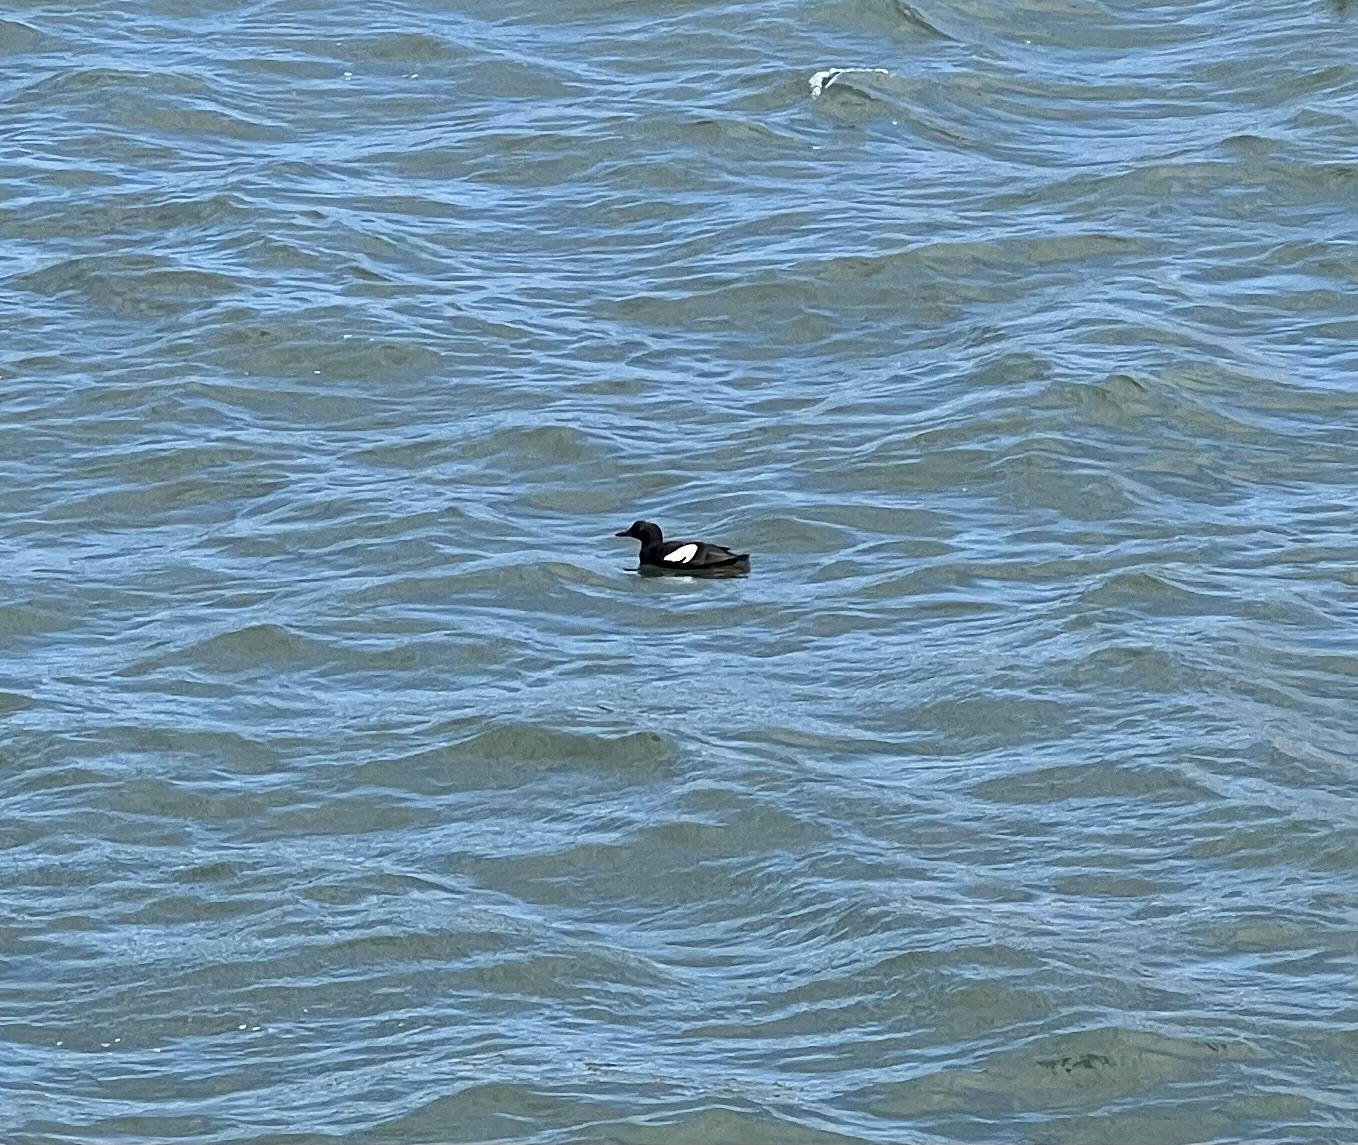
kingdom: Animalia
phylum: Chordata
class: Aves
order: Charadriiformes
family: Alcidae
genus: Cepphus
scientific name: Cepphus columba
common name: Pigeon guillemot
